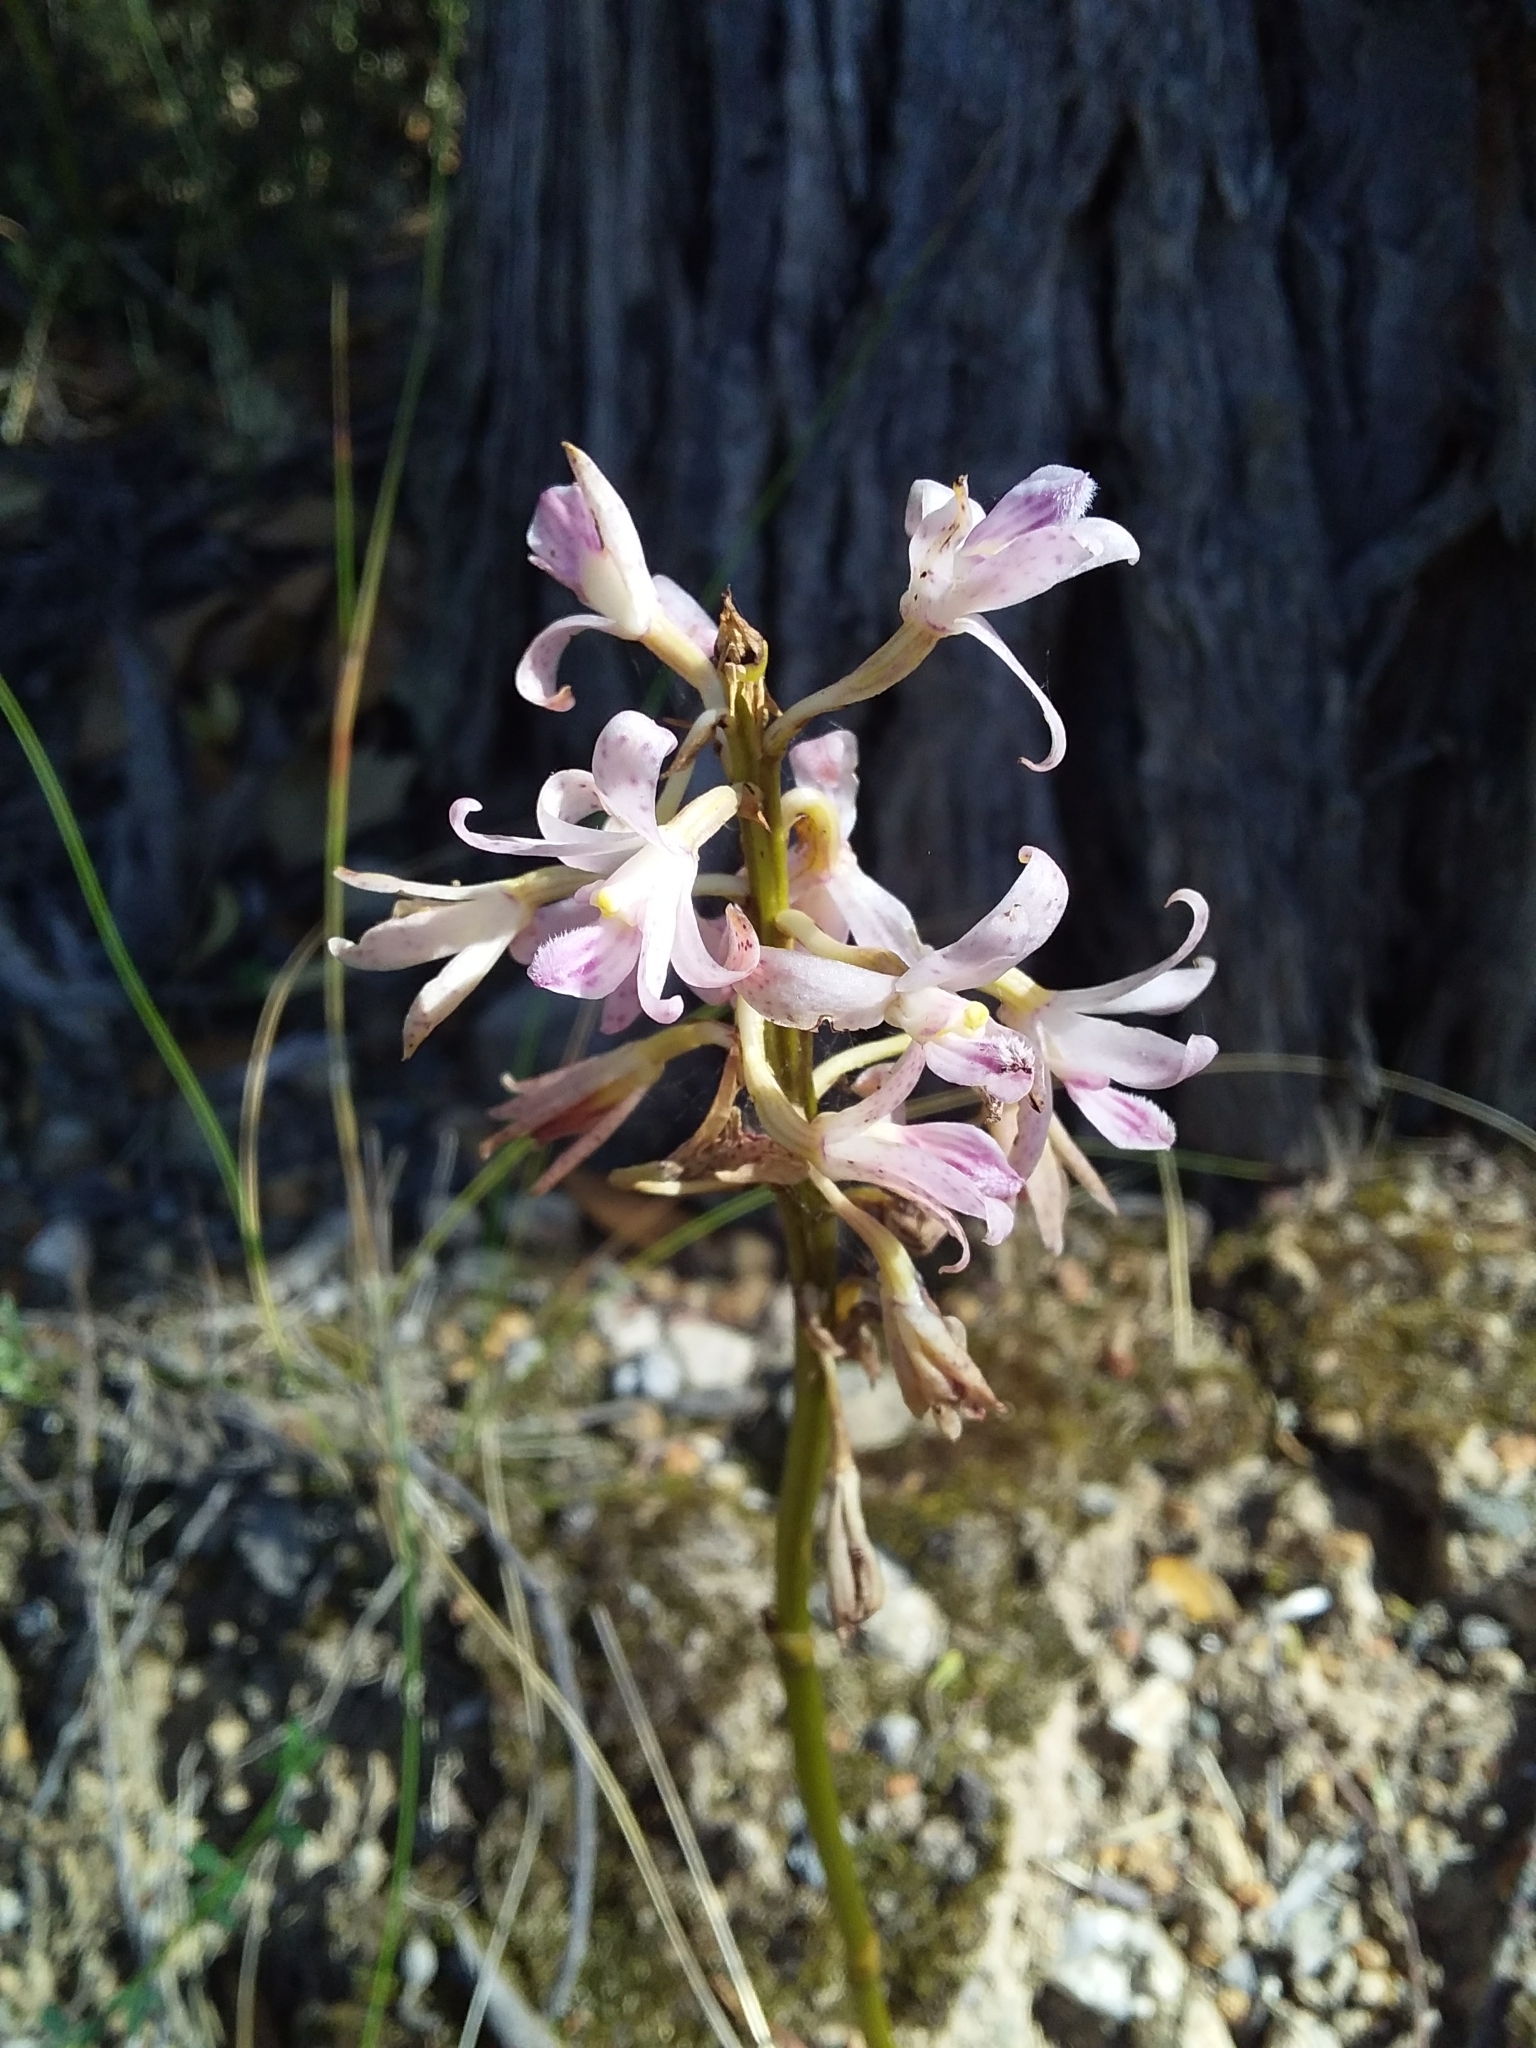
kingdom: Plantae
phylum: Tracheophyta
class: Liliopsida
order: Asparagales
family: Orchidaceae
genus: Dipodium
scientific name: Dipodium roseum
